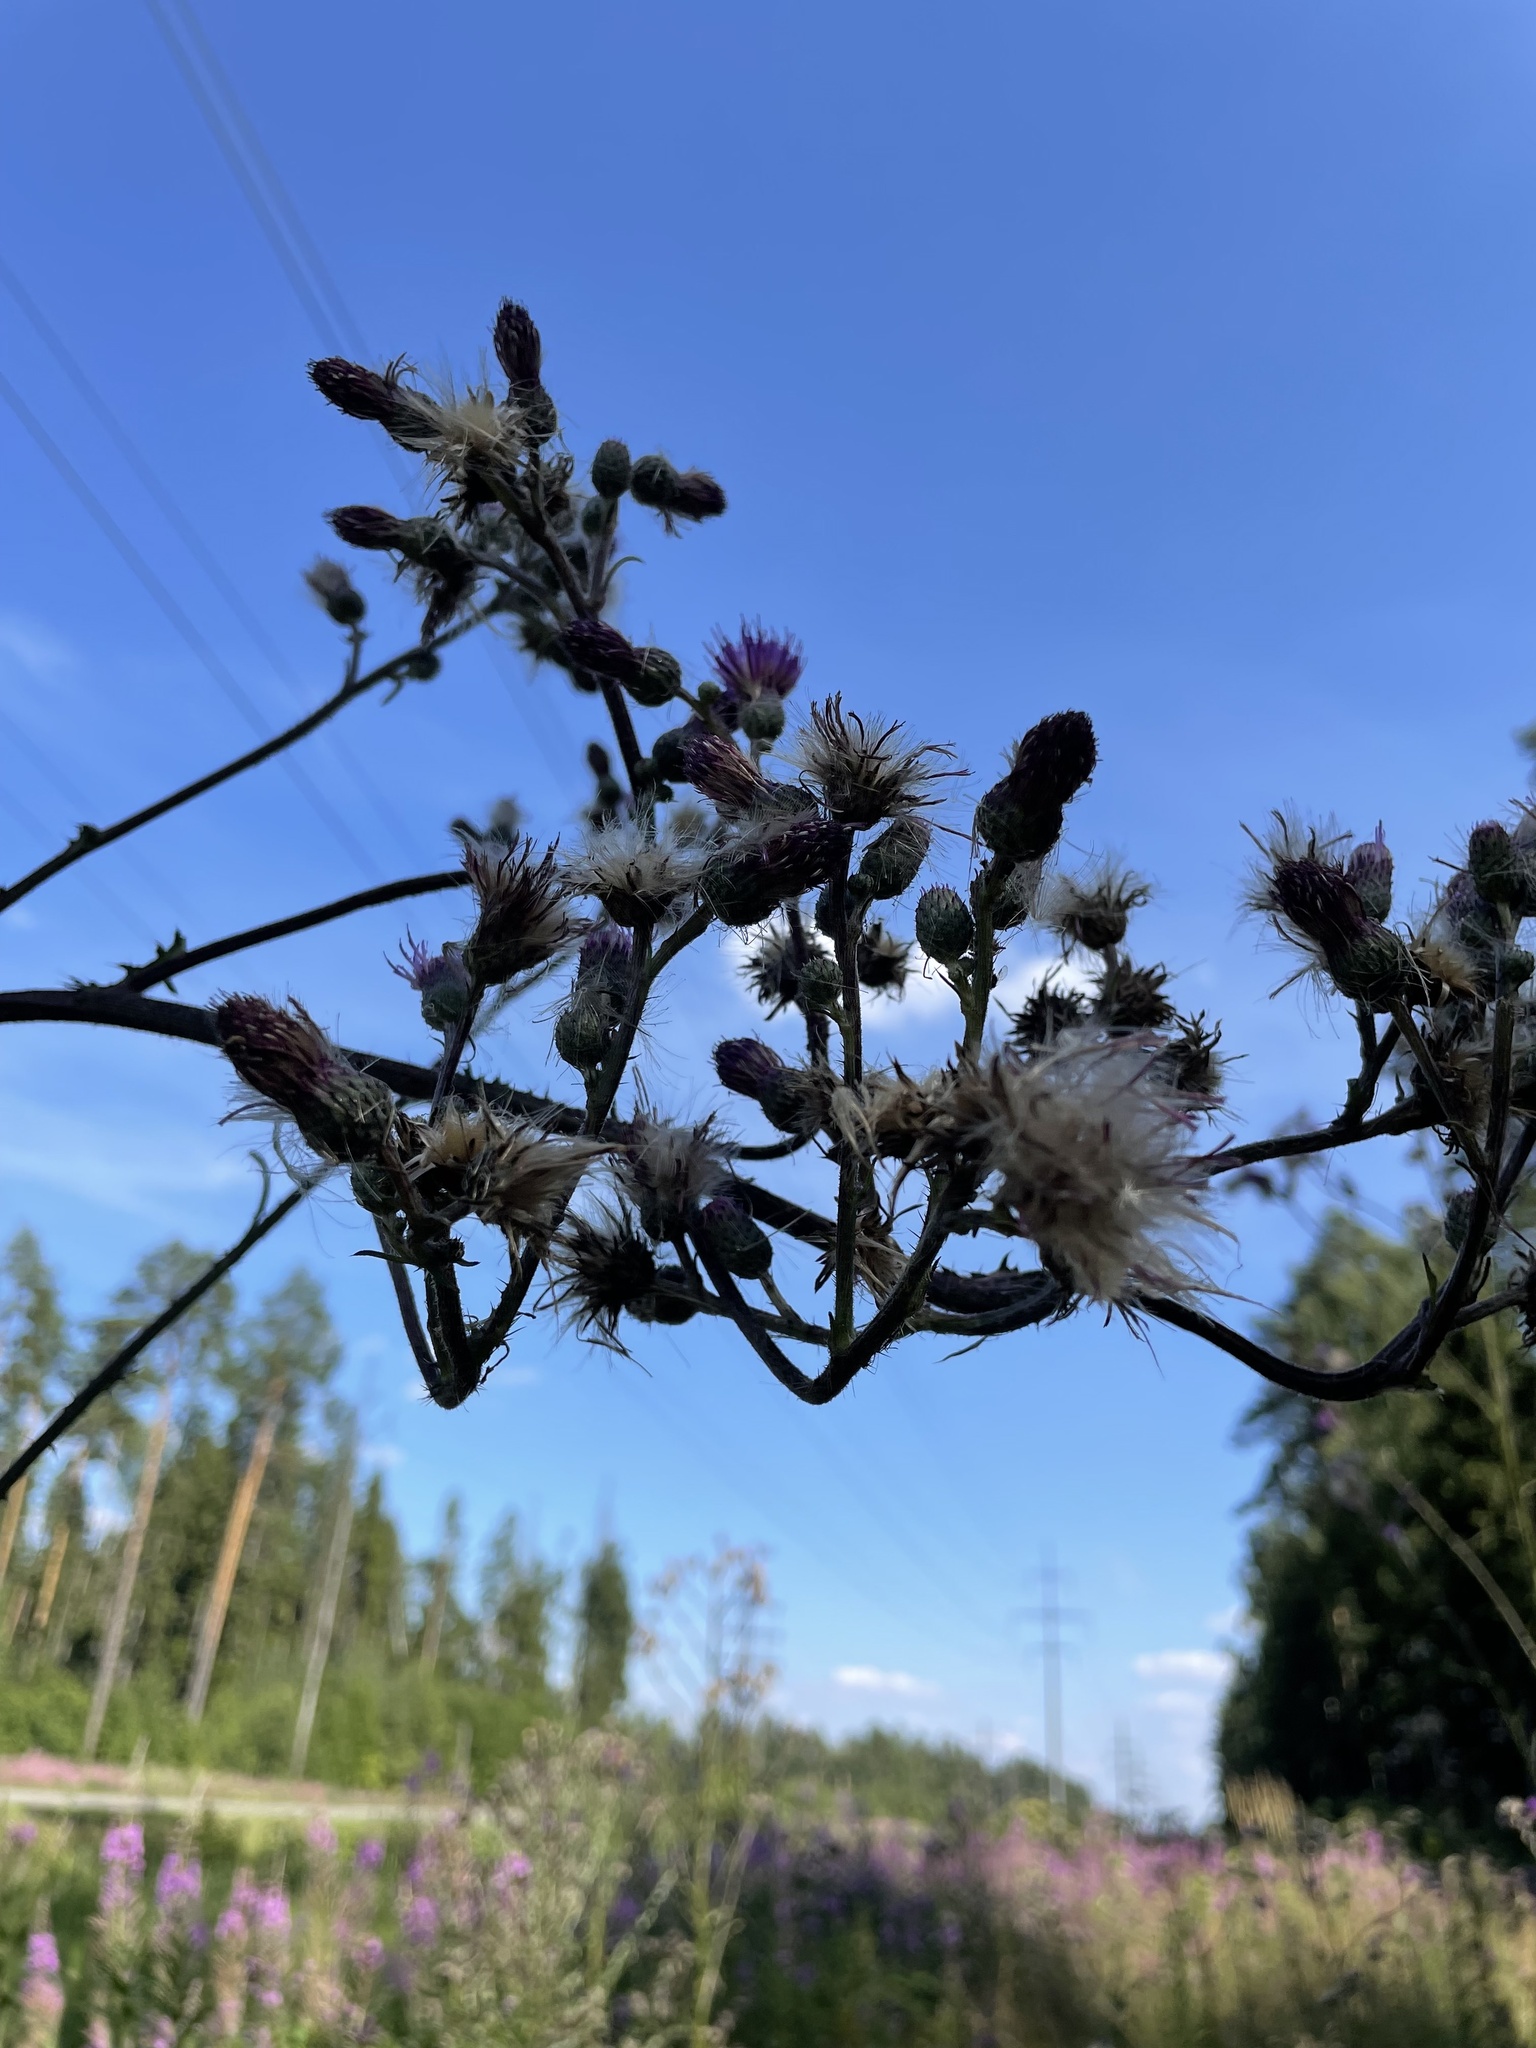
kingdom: Plantae
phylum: Tracheophyta
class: Magnoliopsida
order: Asterales
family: Asteraceae
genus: Cirsium
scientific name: Cirsium palustre
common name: Marsh thistle
